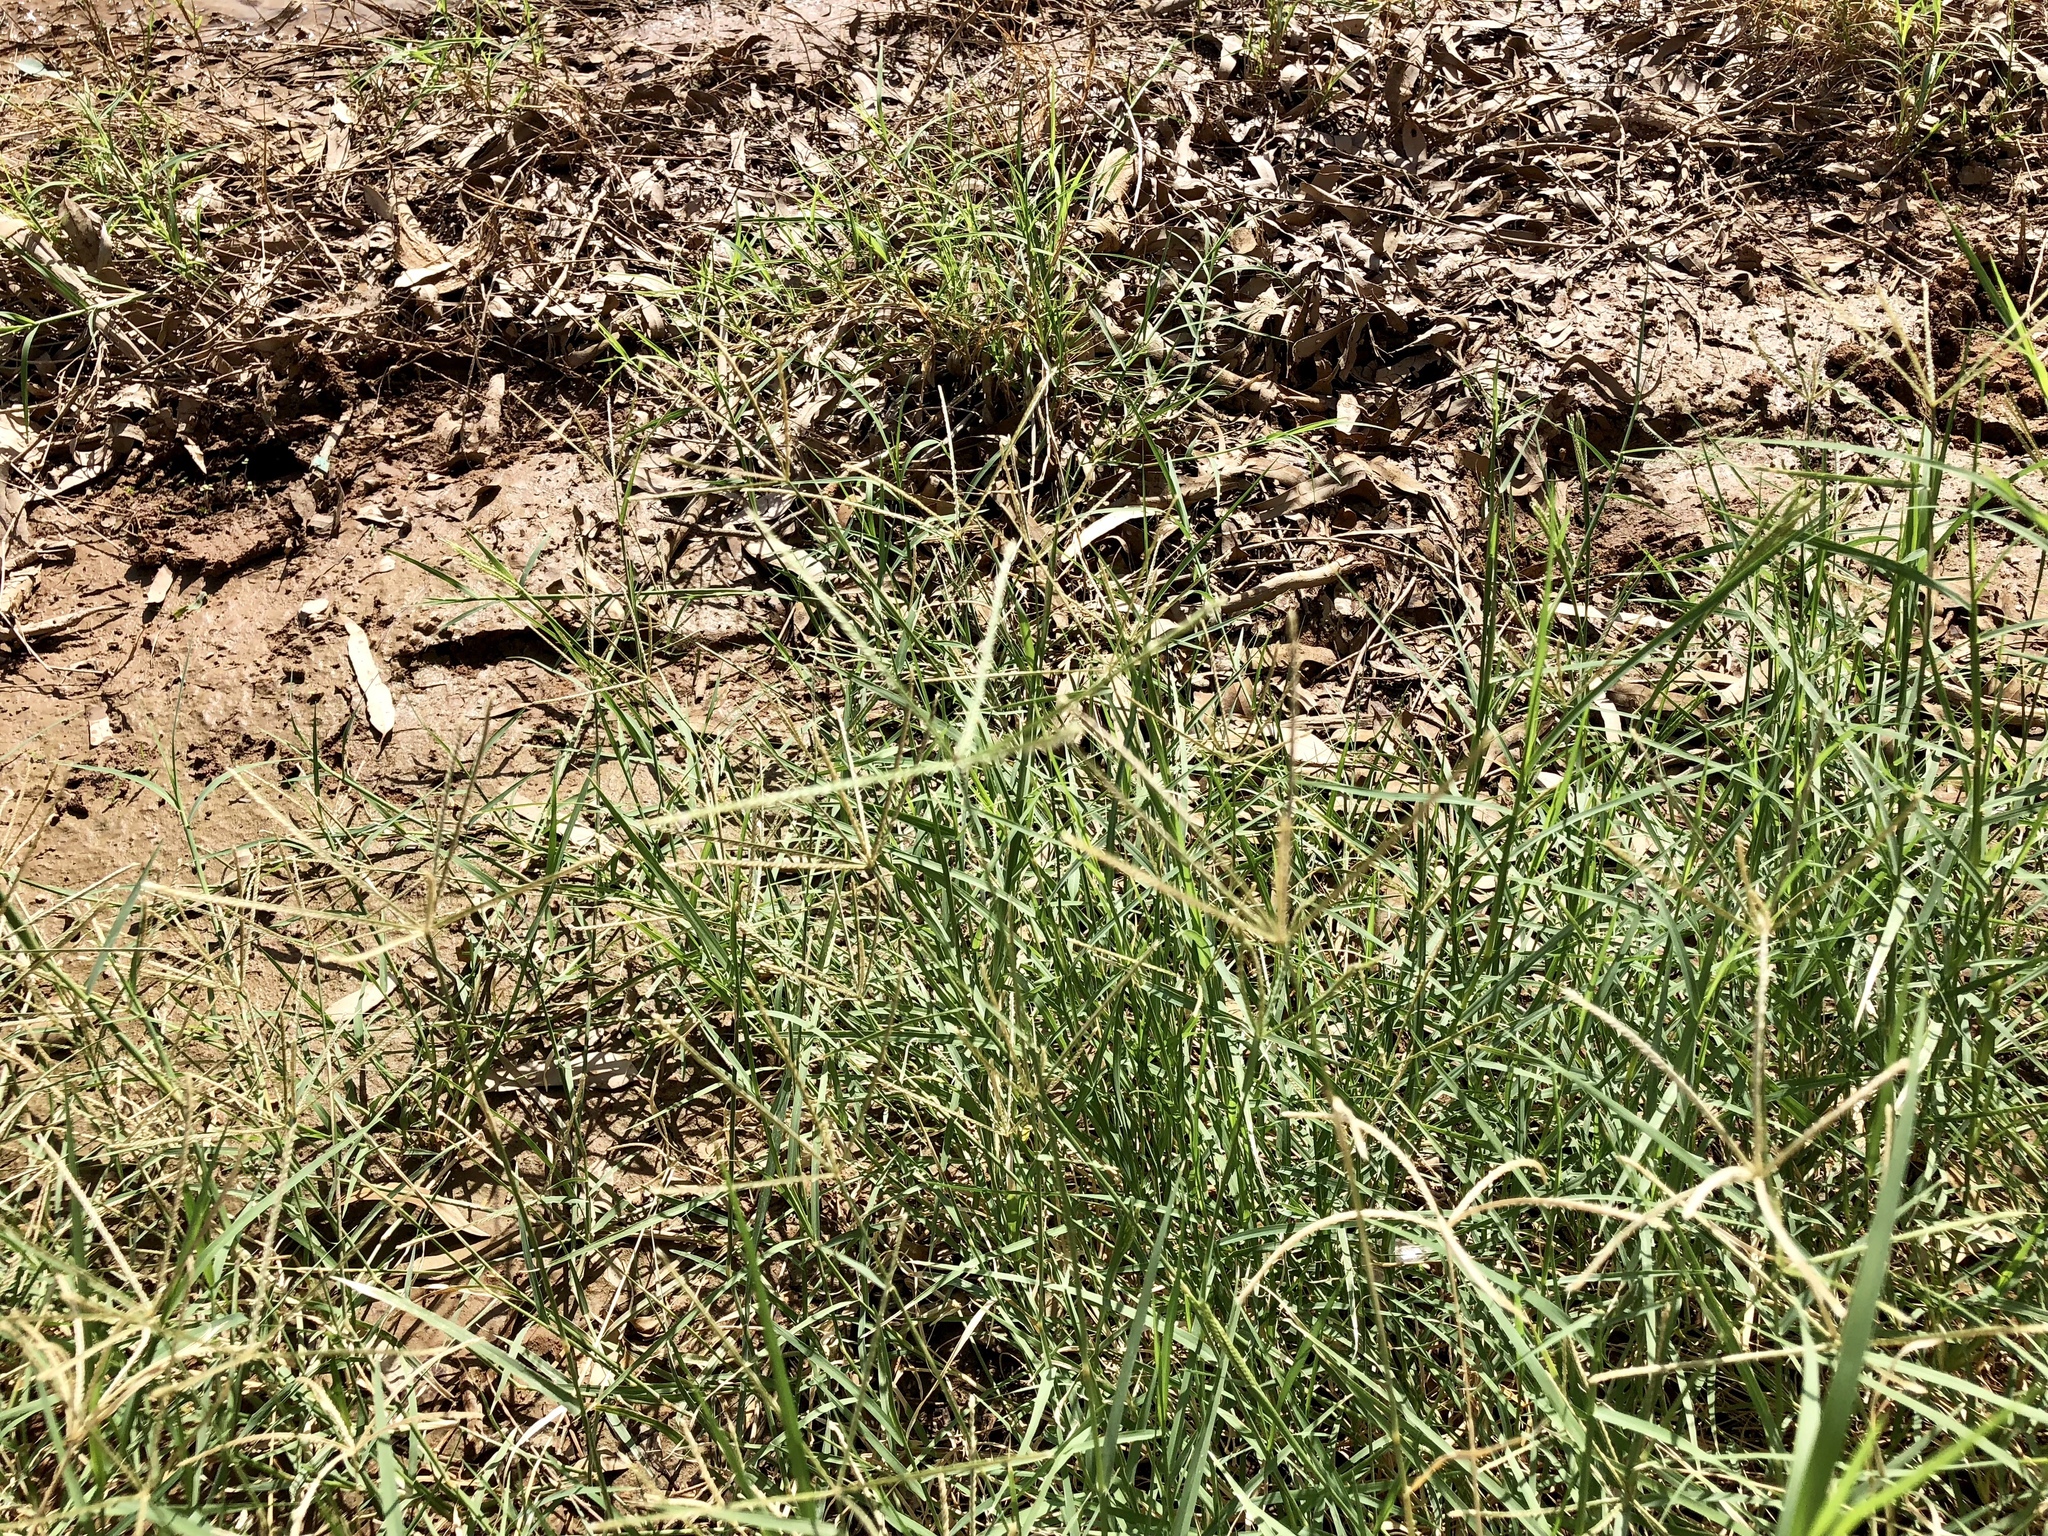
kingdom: Plantae
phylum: Tracheophyta
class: Liliopsida
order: Poales
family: Poaceae
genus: Cynodon
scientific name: Cynodon dactylon
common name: Bermuda grass
